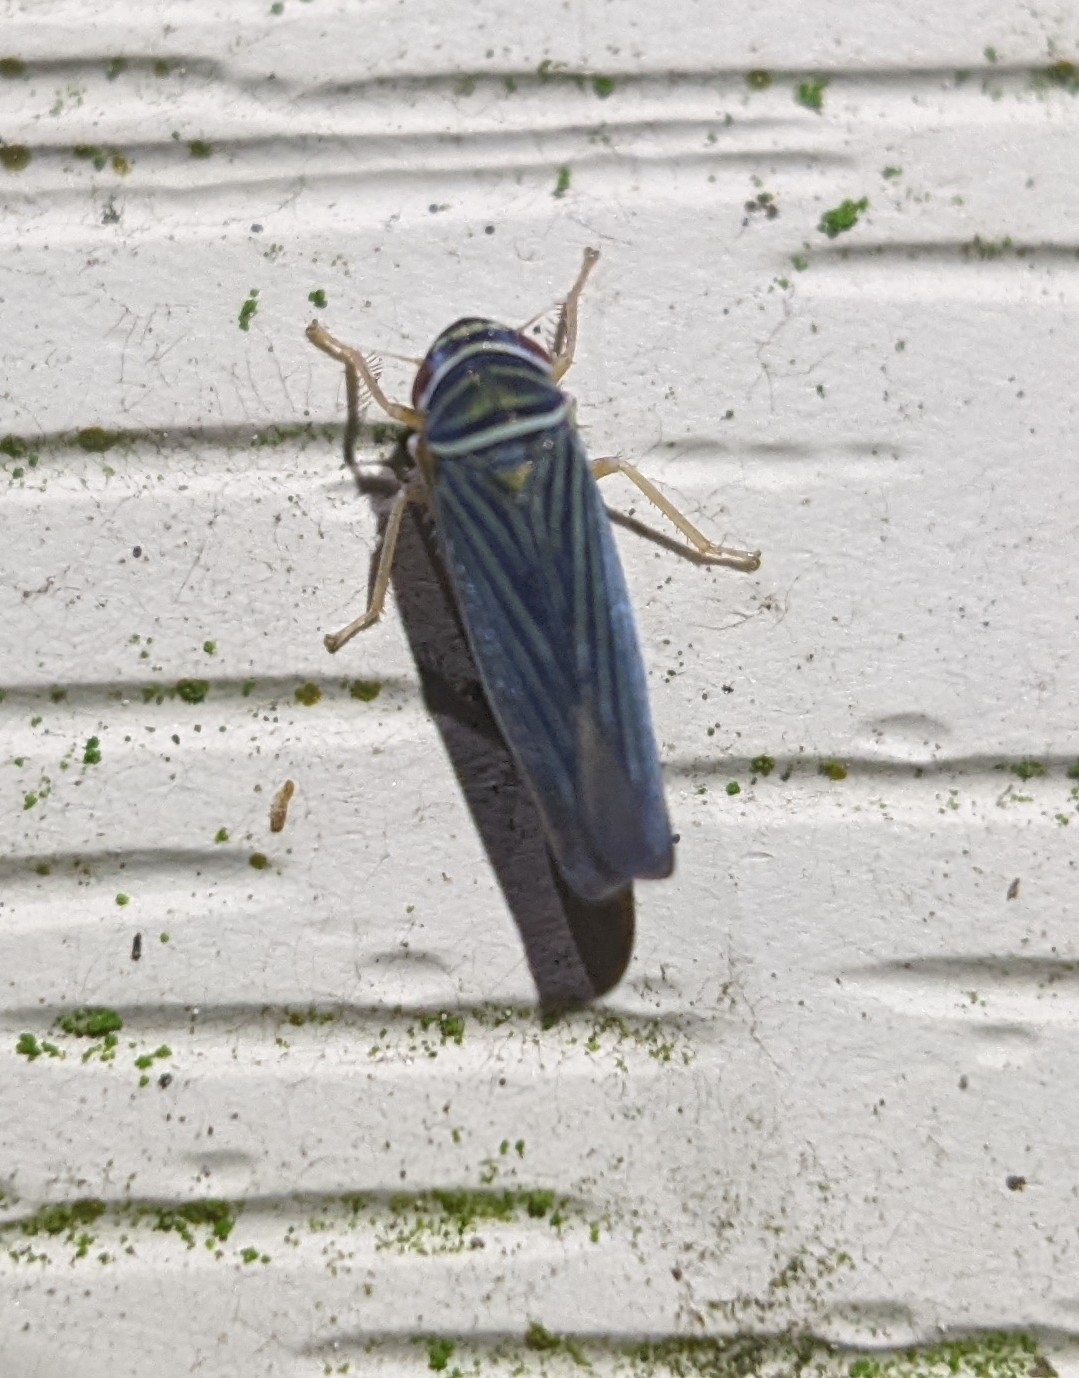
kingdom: Animalia
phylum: Arthropoda
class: Insecta
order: Hemiptera
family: Cicadellidae
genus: Tylozygus
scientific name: Tylozygus bifidus
